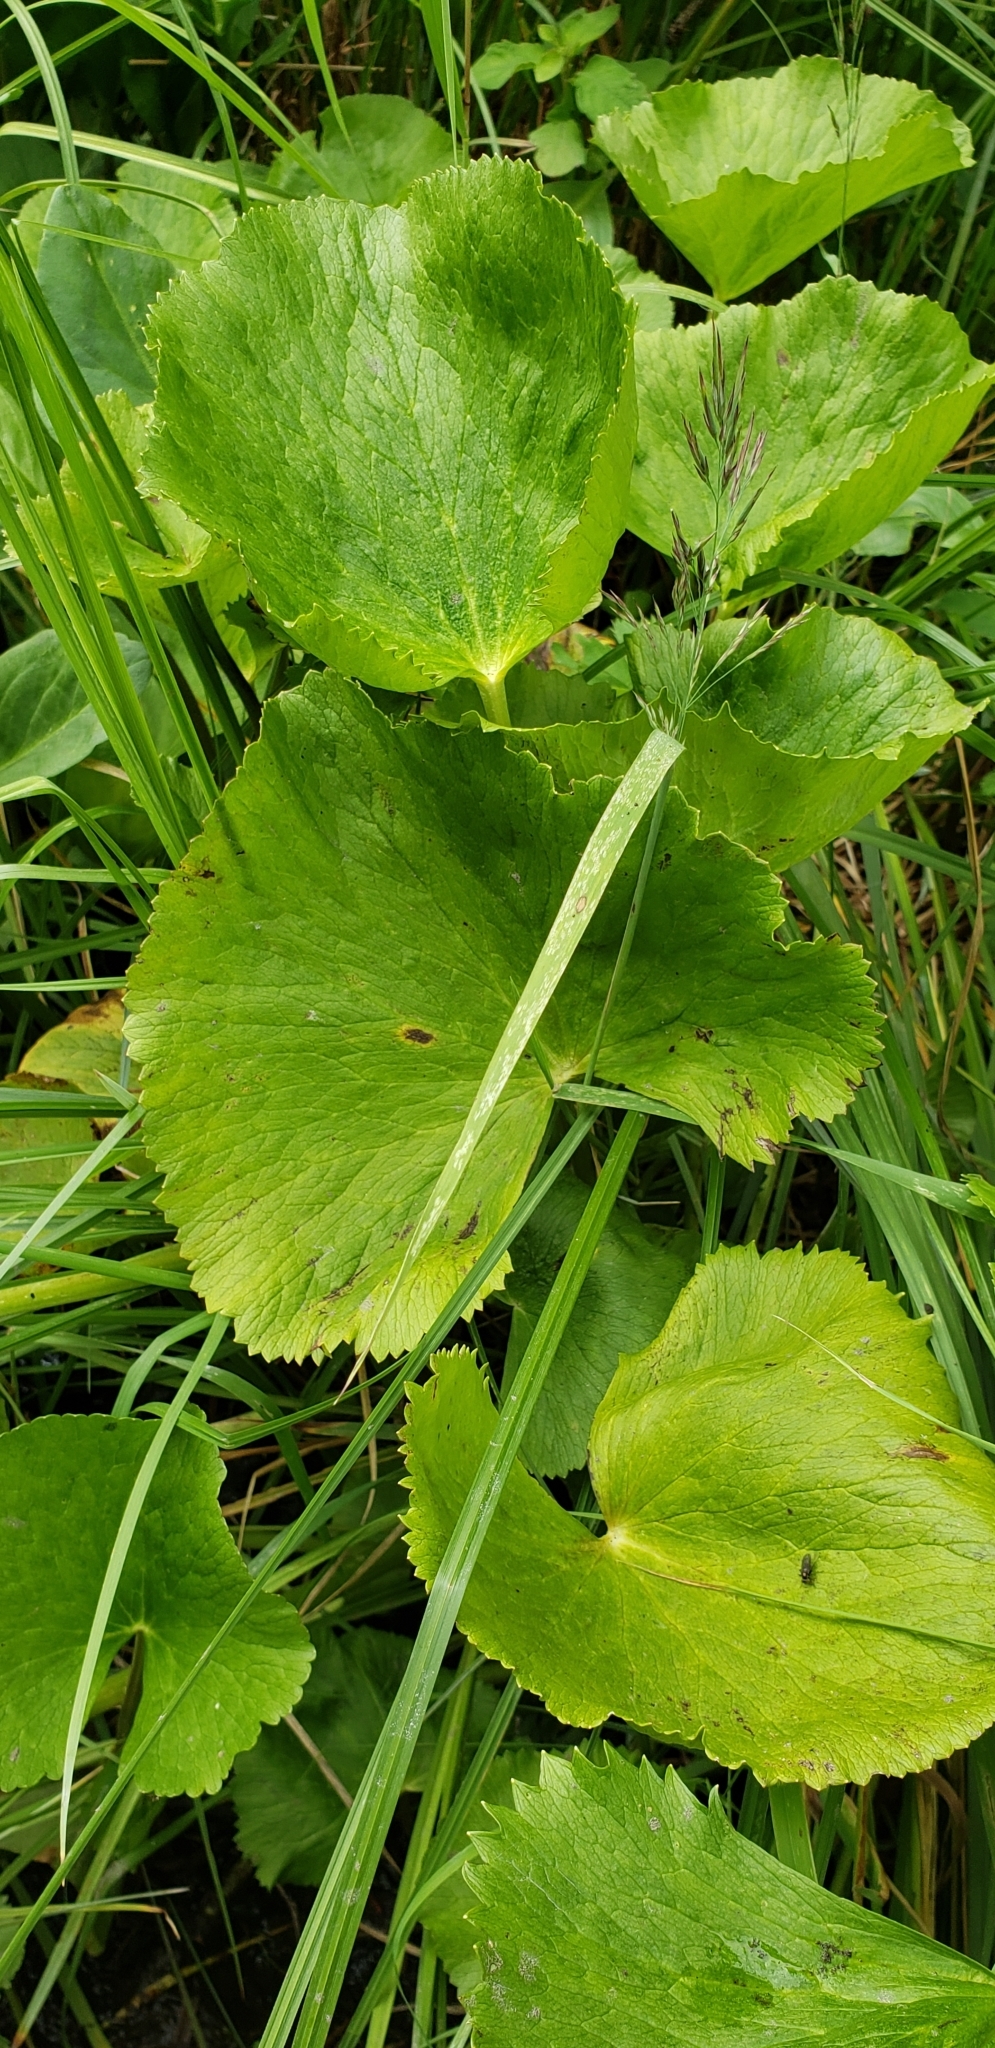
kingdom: Plantae
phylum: Tracheophyta
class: Magnoliopsida
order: Ranunculales
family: Ranunculaceae
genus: Caltha
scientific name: Caltha palustris
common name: Marsh marigold
